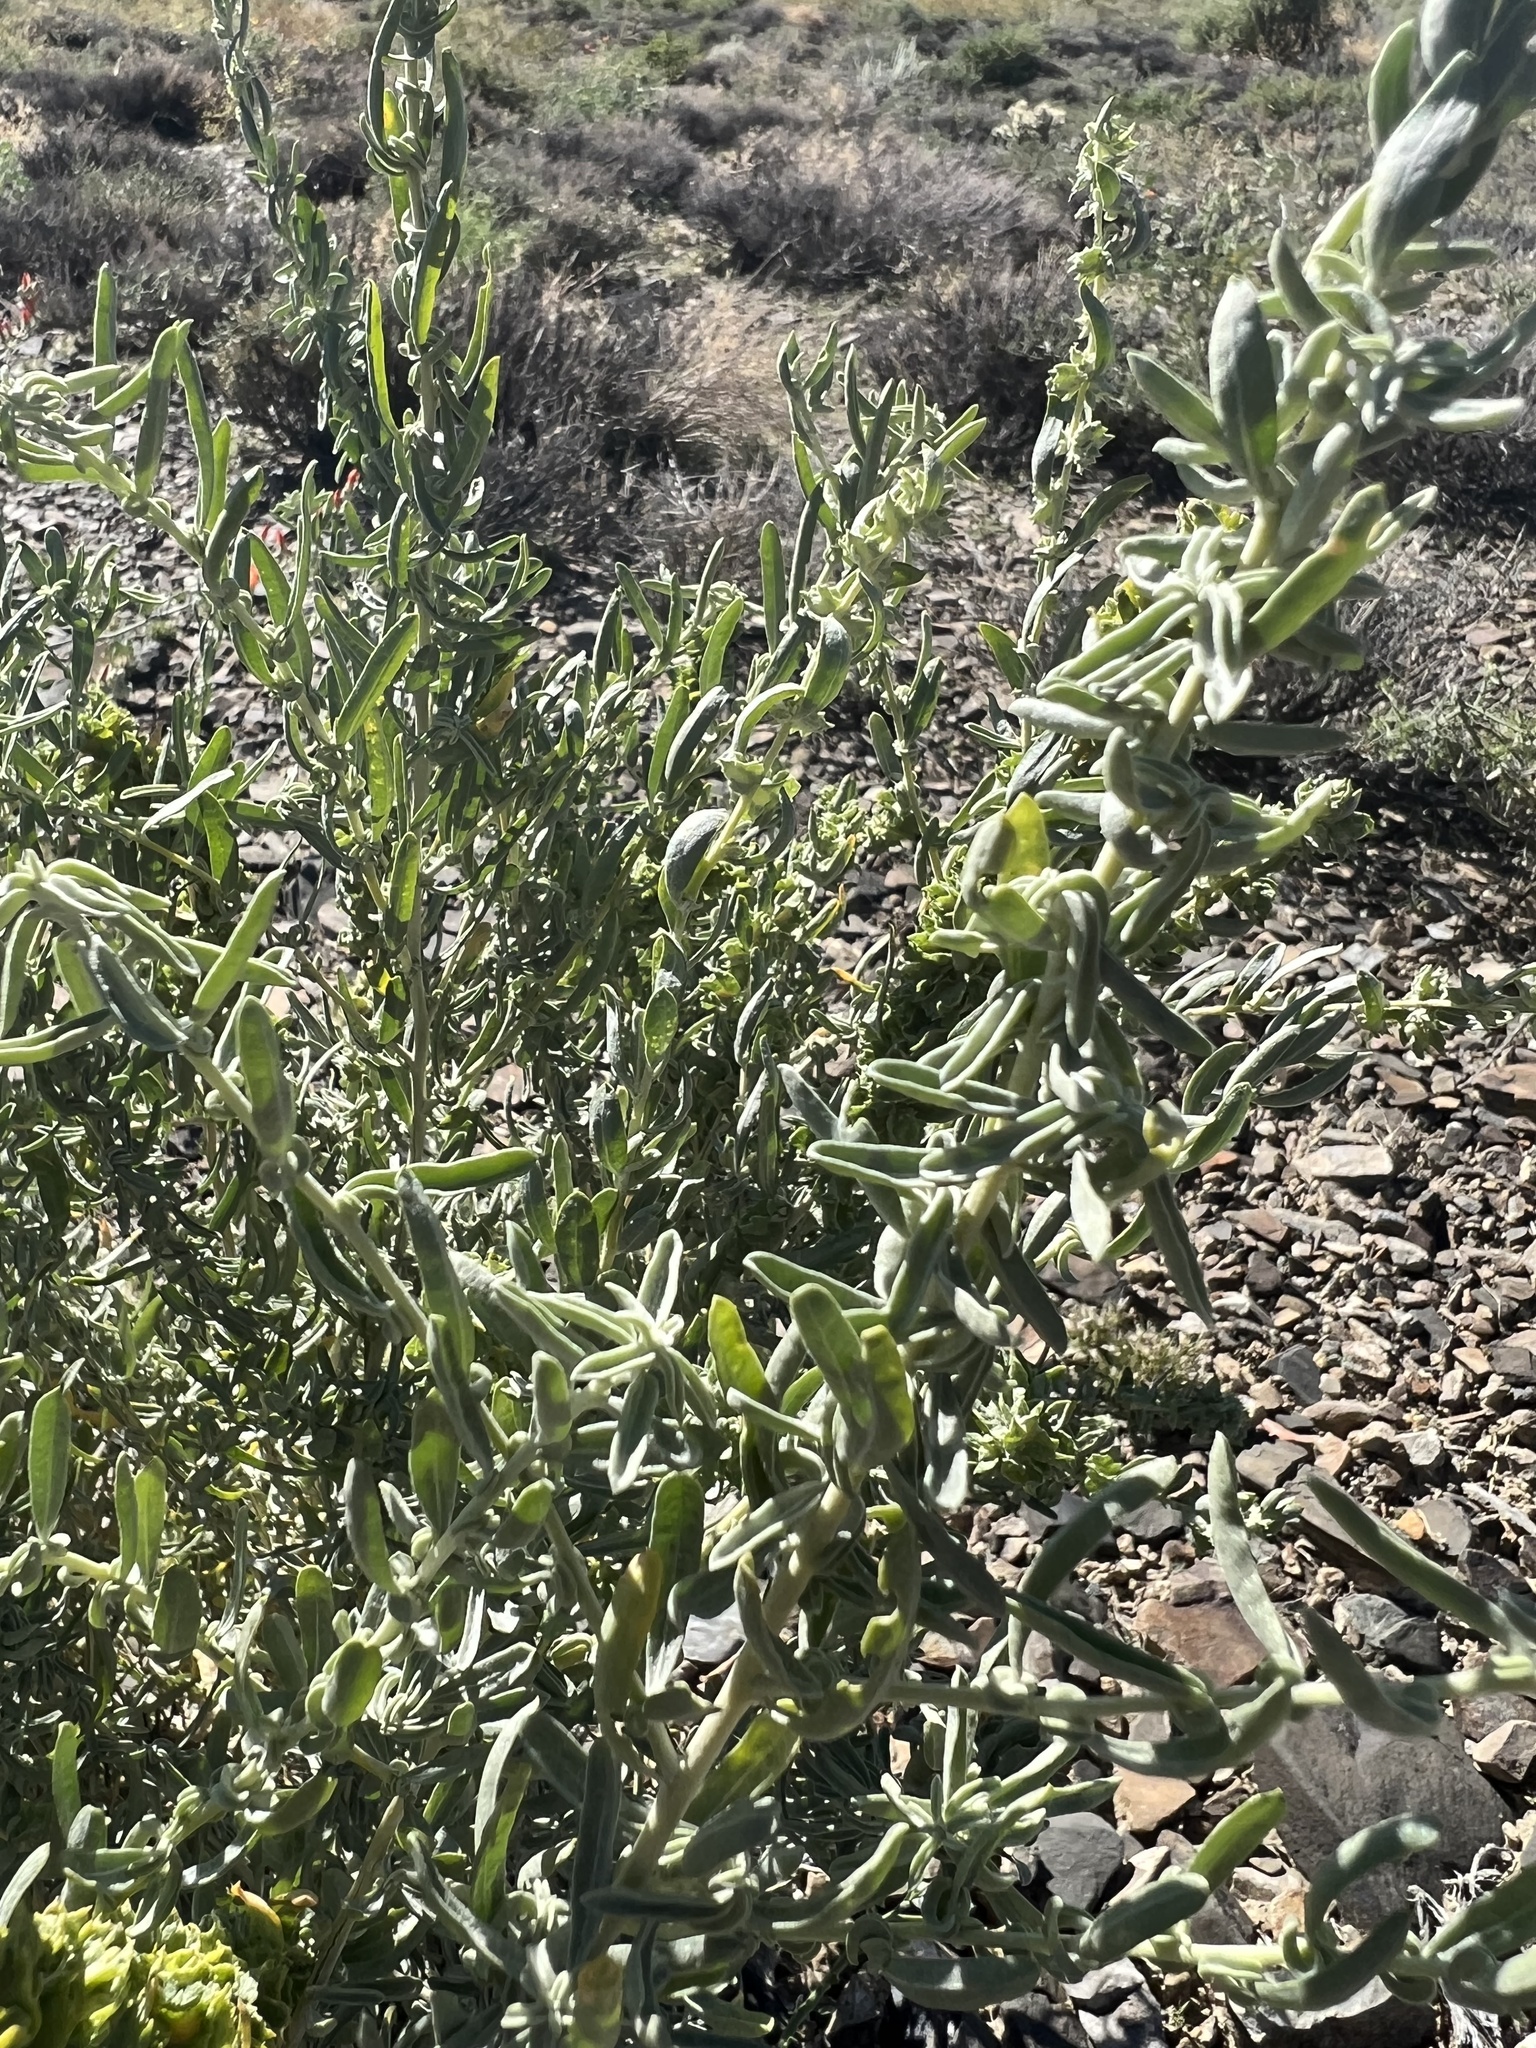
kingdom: Plantae
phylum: Tracheophyta
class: Magnoliopsida
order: Caryophyllales
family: Amaranthaceae
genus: Atriplex
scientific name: Atriplex canescens
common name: Four-wing saltbush
